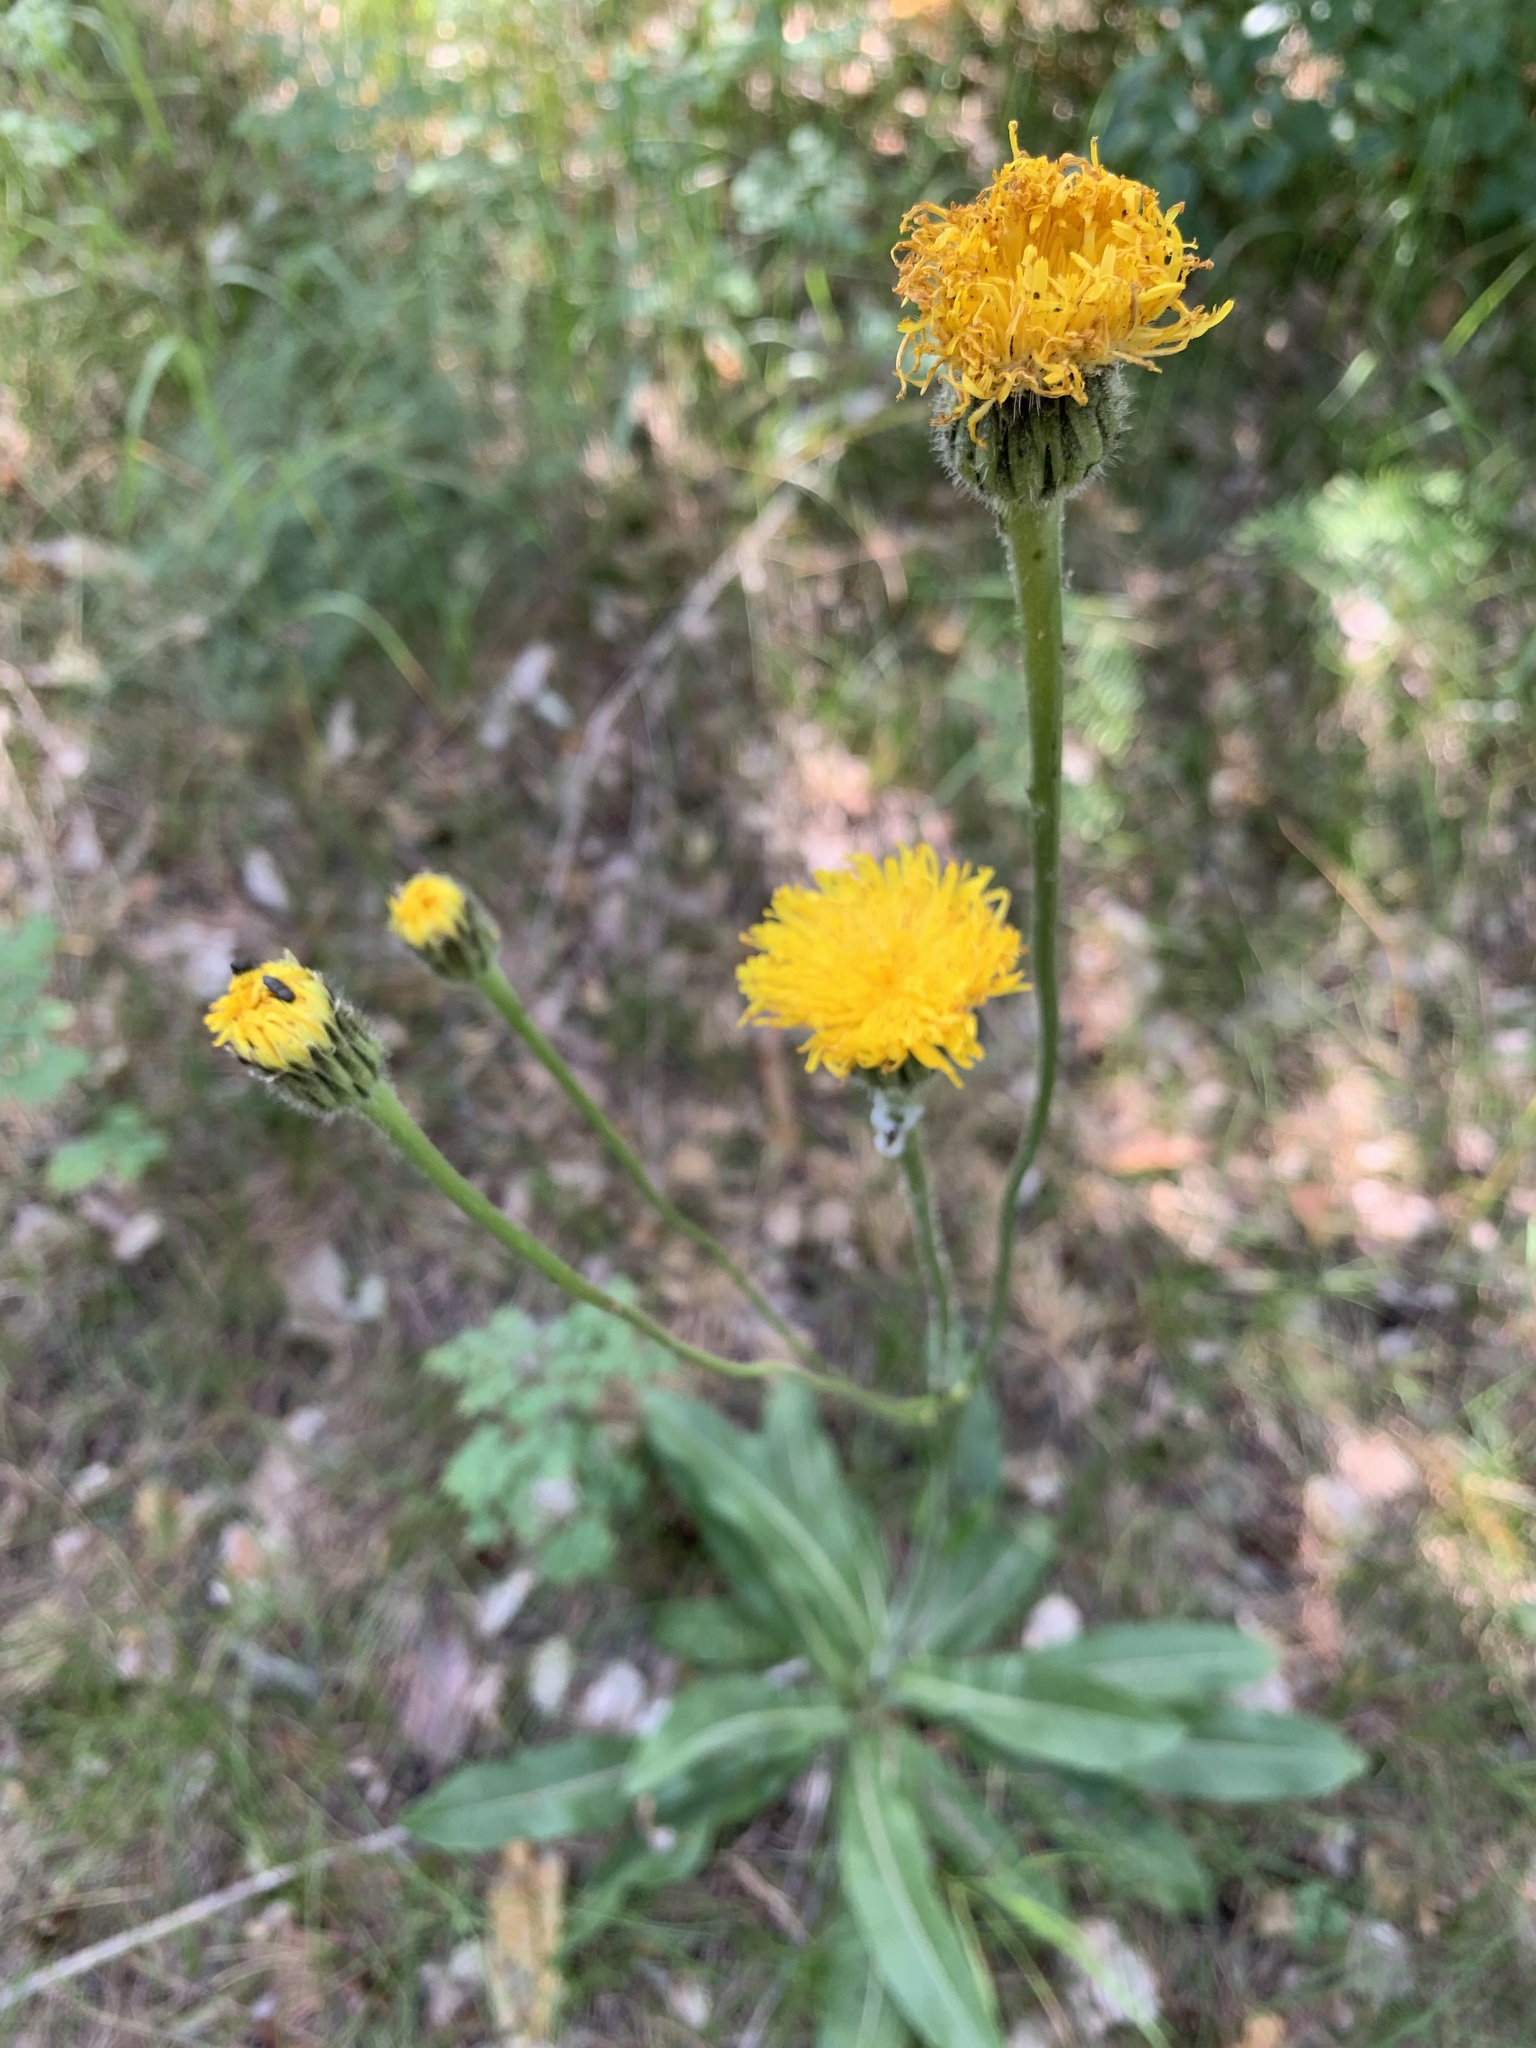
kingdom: Plantae
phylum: Tracheophyta
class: Magnoliopsida
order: Asterales
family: Asteraceae
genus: Trommsdorffia
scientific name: Trommsdorffia maculata
